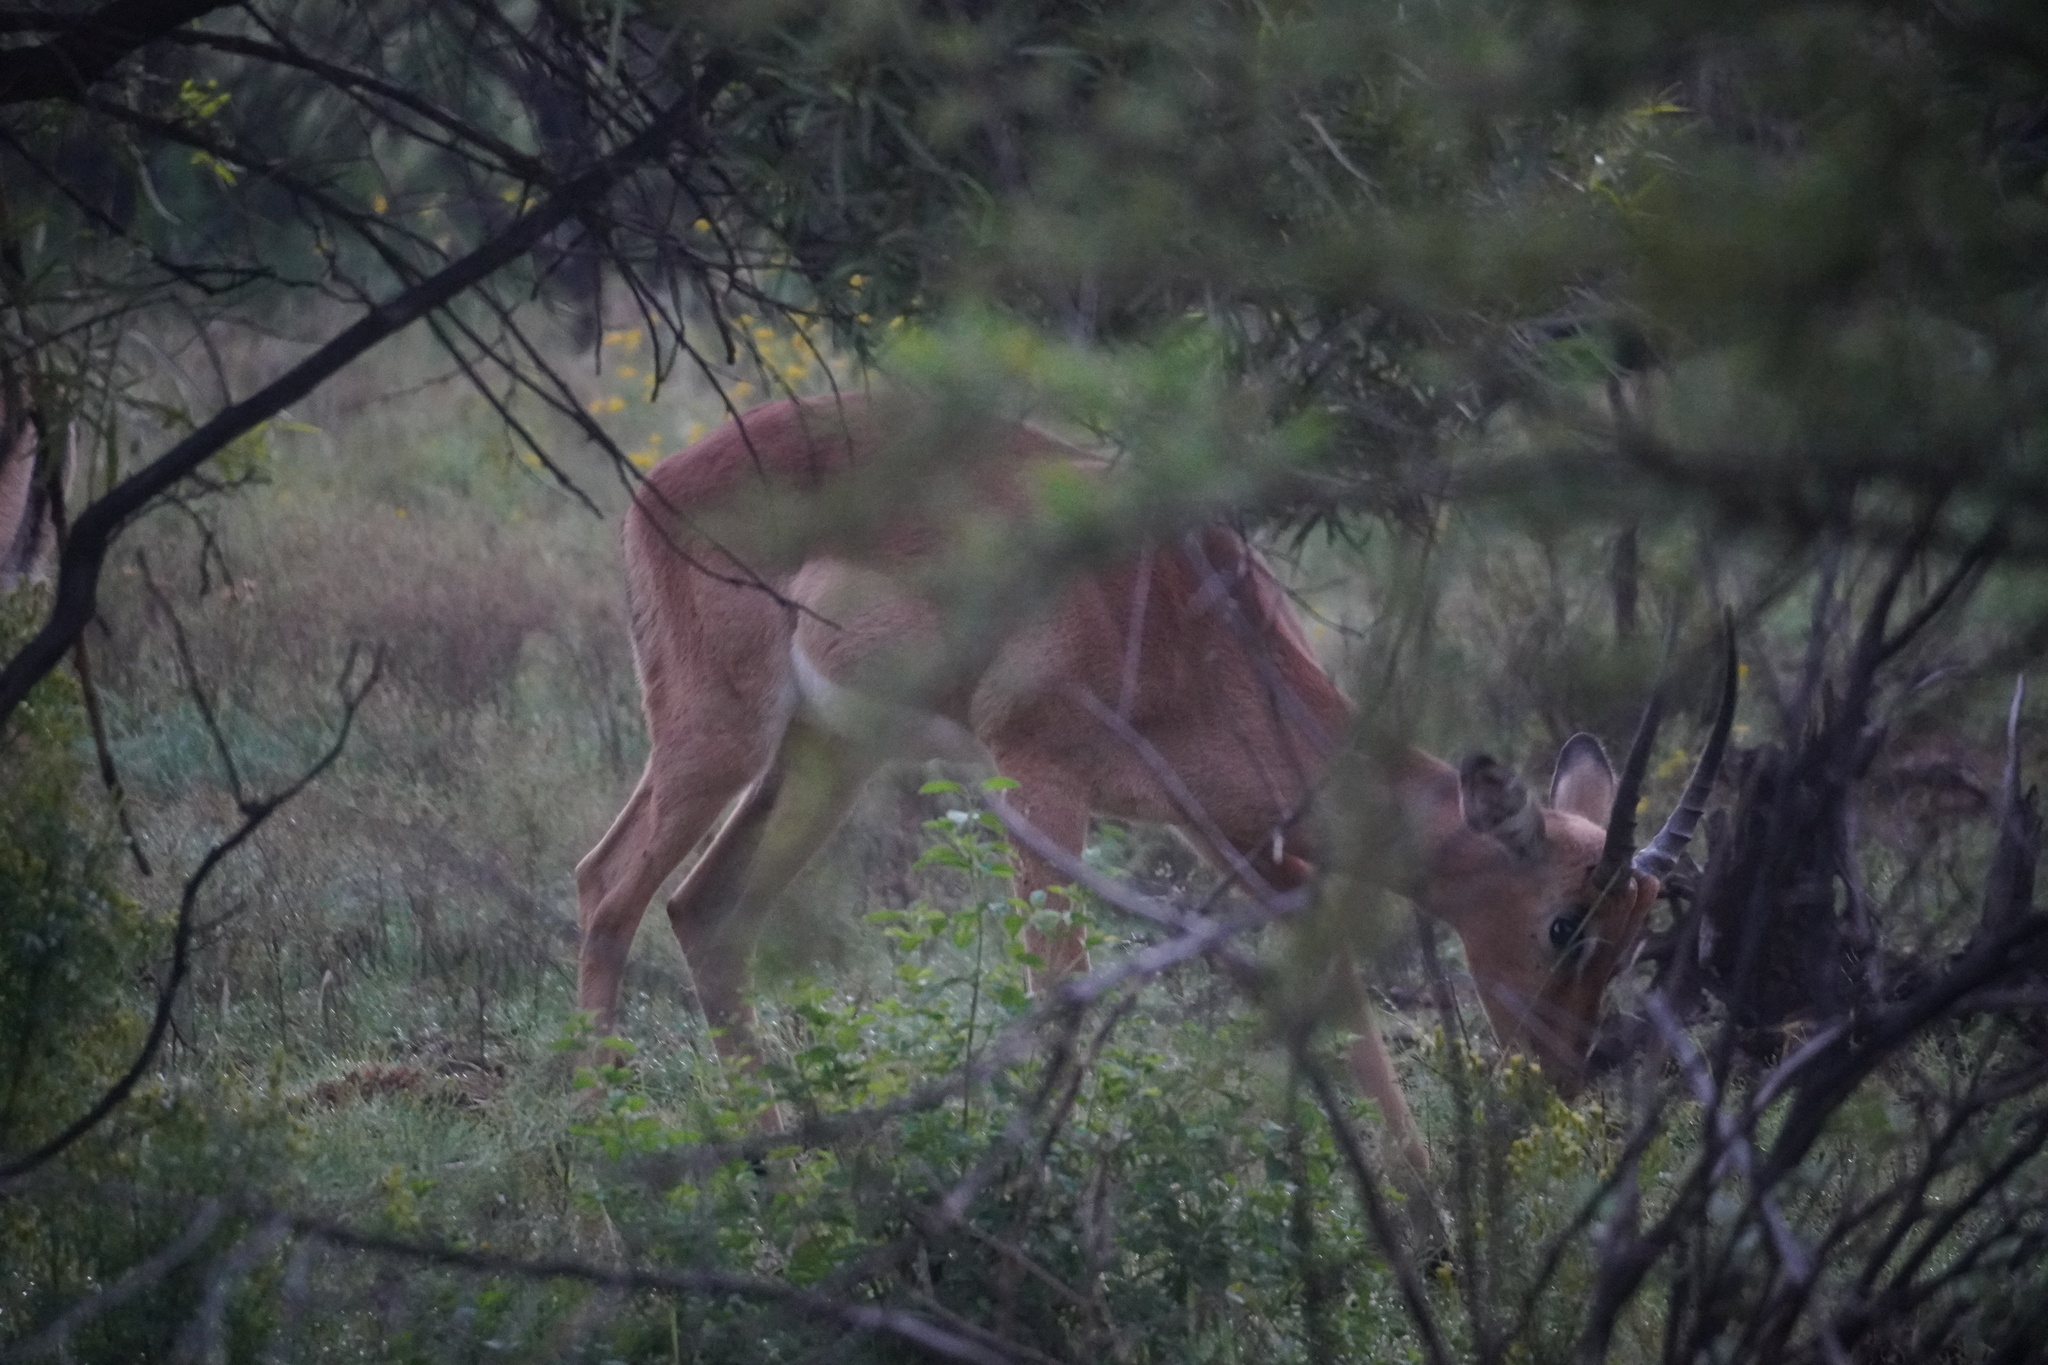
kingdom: Animalia
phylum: Chordata
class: Mammalia
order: Artiodactyla
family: Bovidae
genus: Aepyceros
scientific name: Aepyceros melampus
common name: Impala
